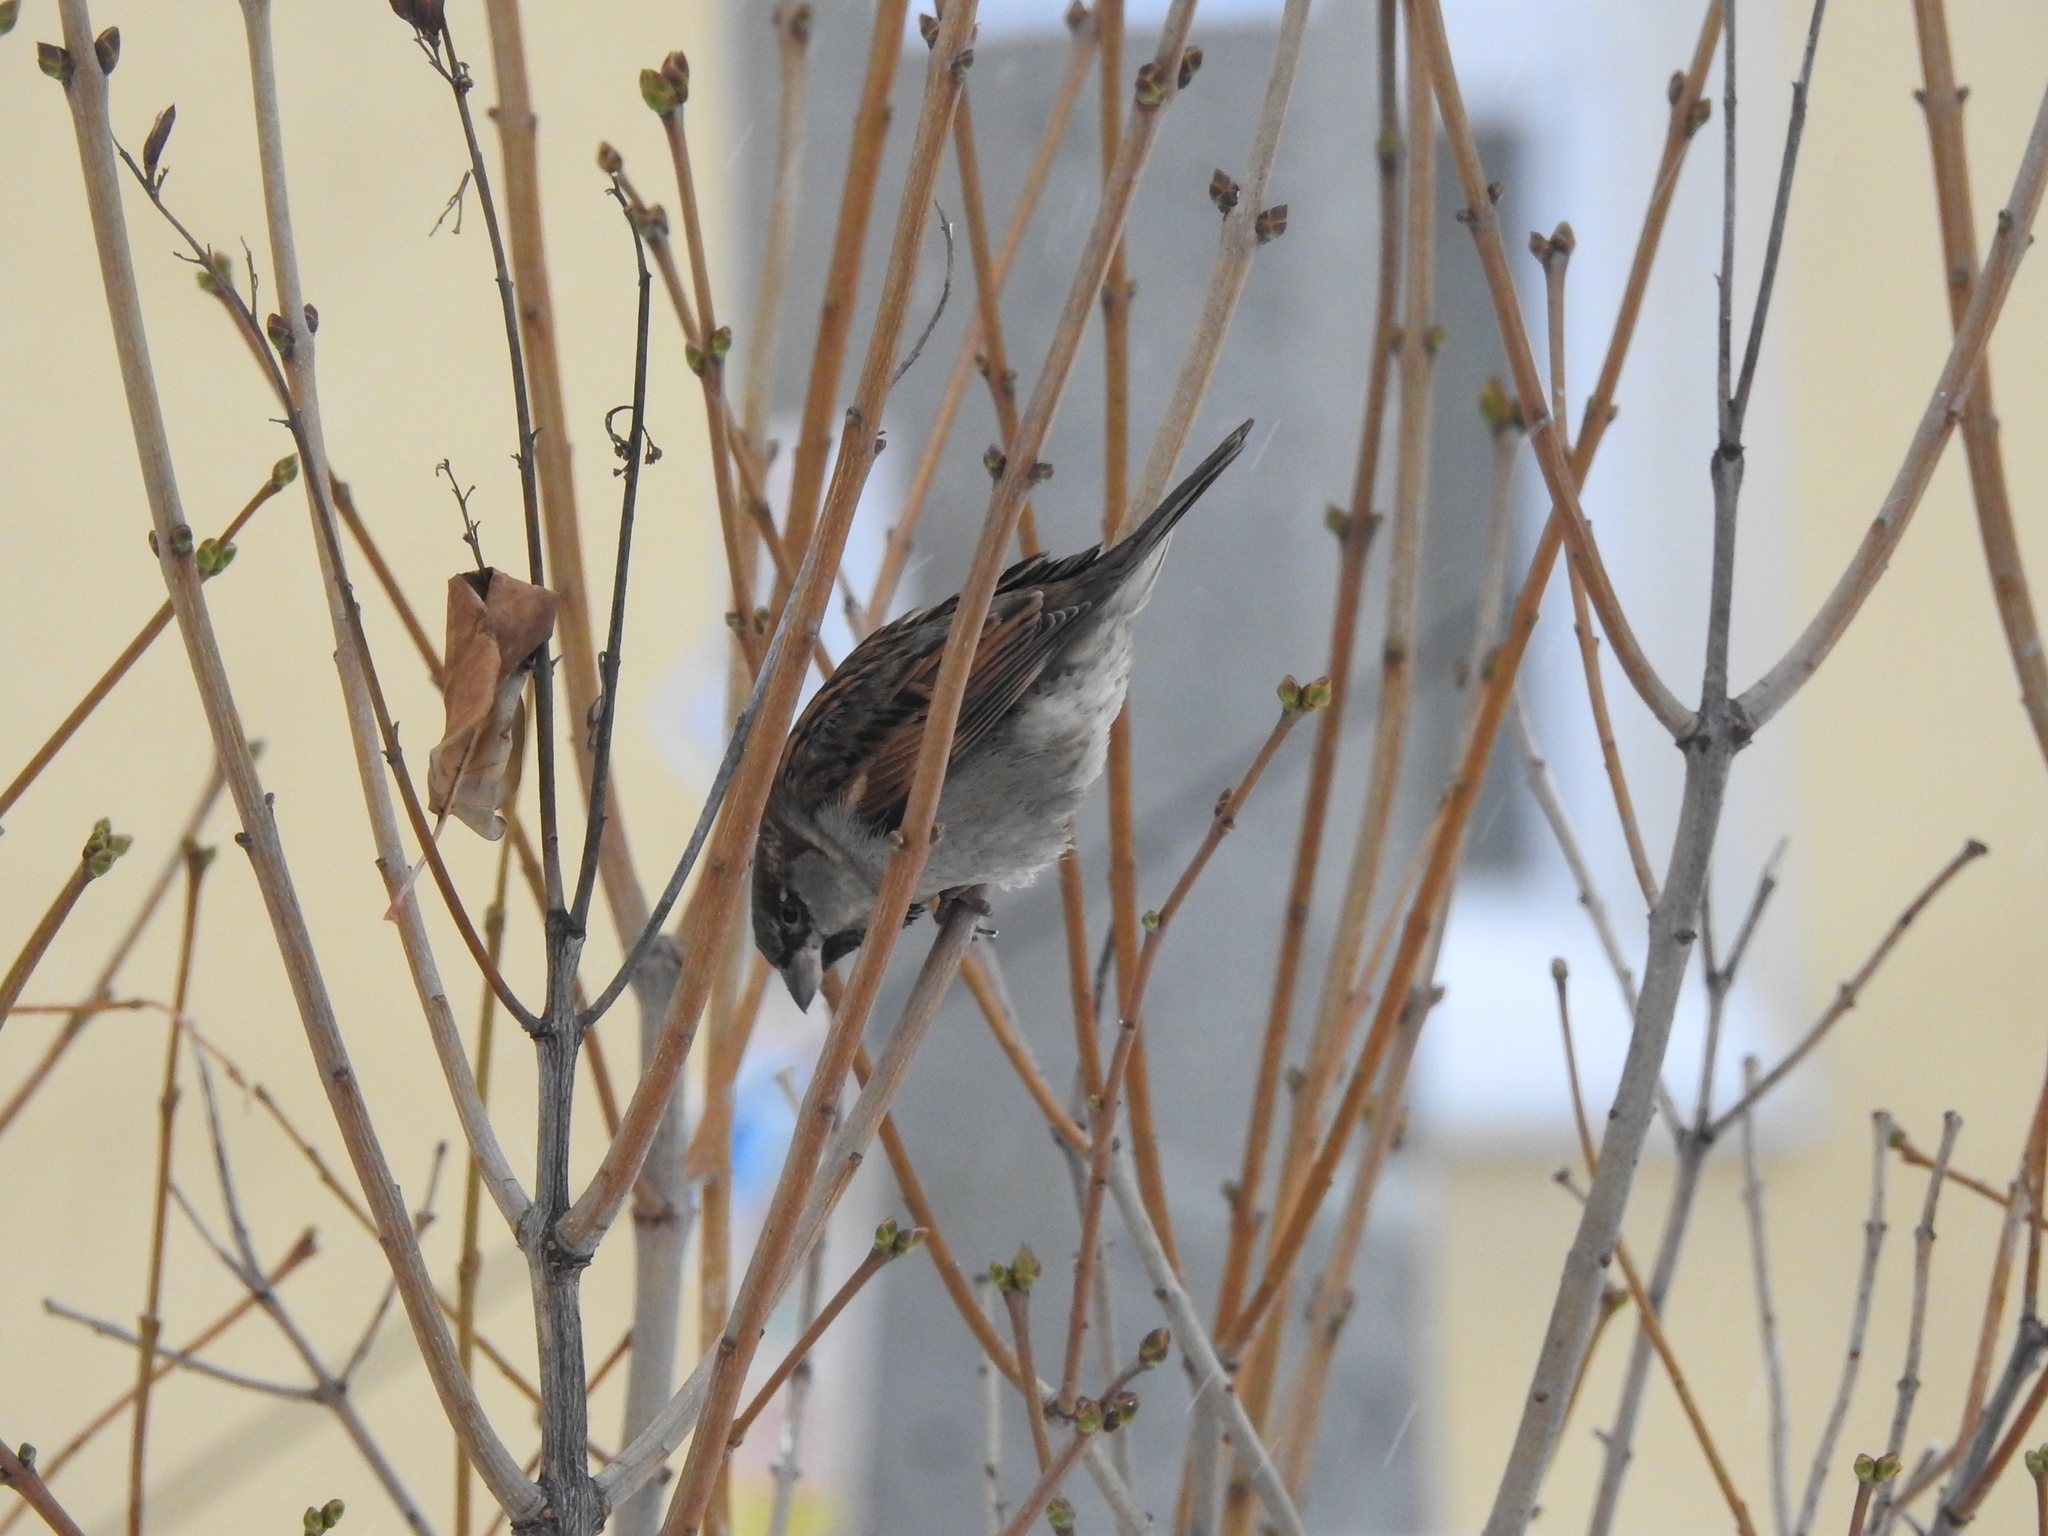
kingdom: Animalia
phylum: Chordata
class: Aves
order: Passeriformes
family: Passeridae
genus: Passer
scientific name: Passer domesticus
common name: House sparrow
